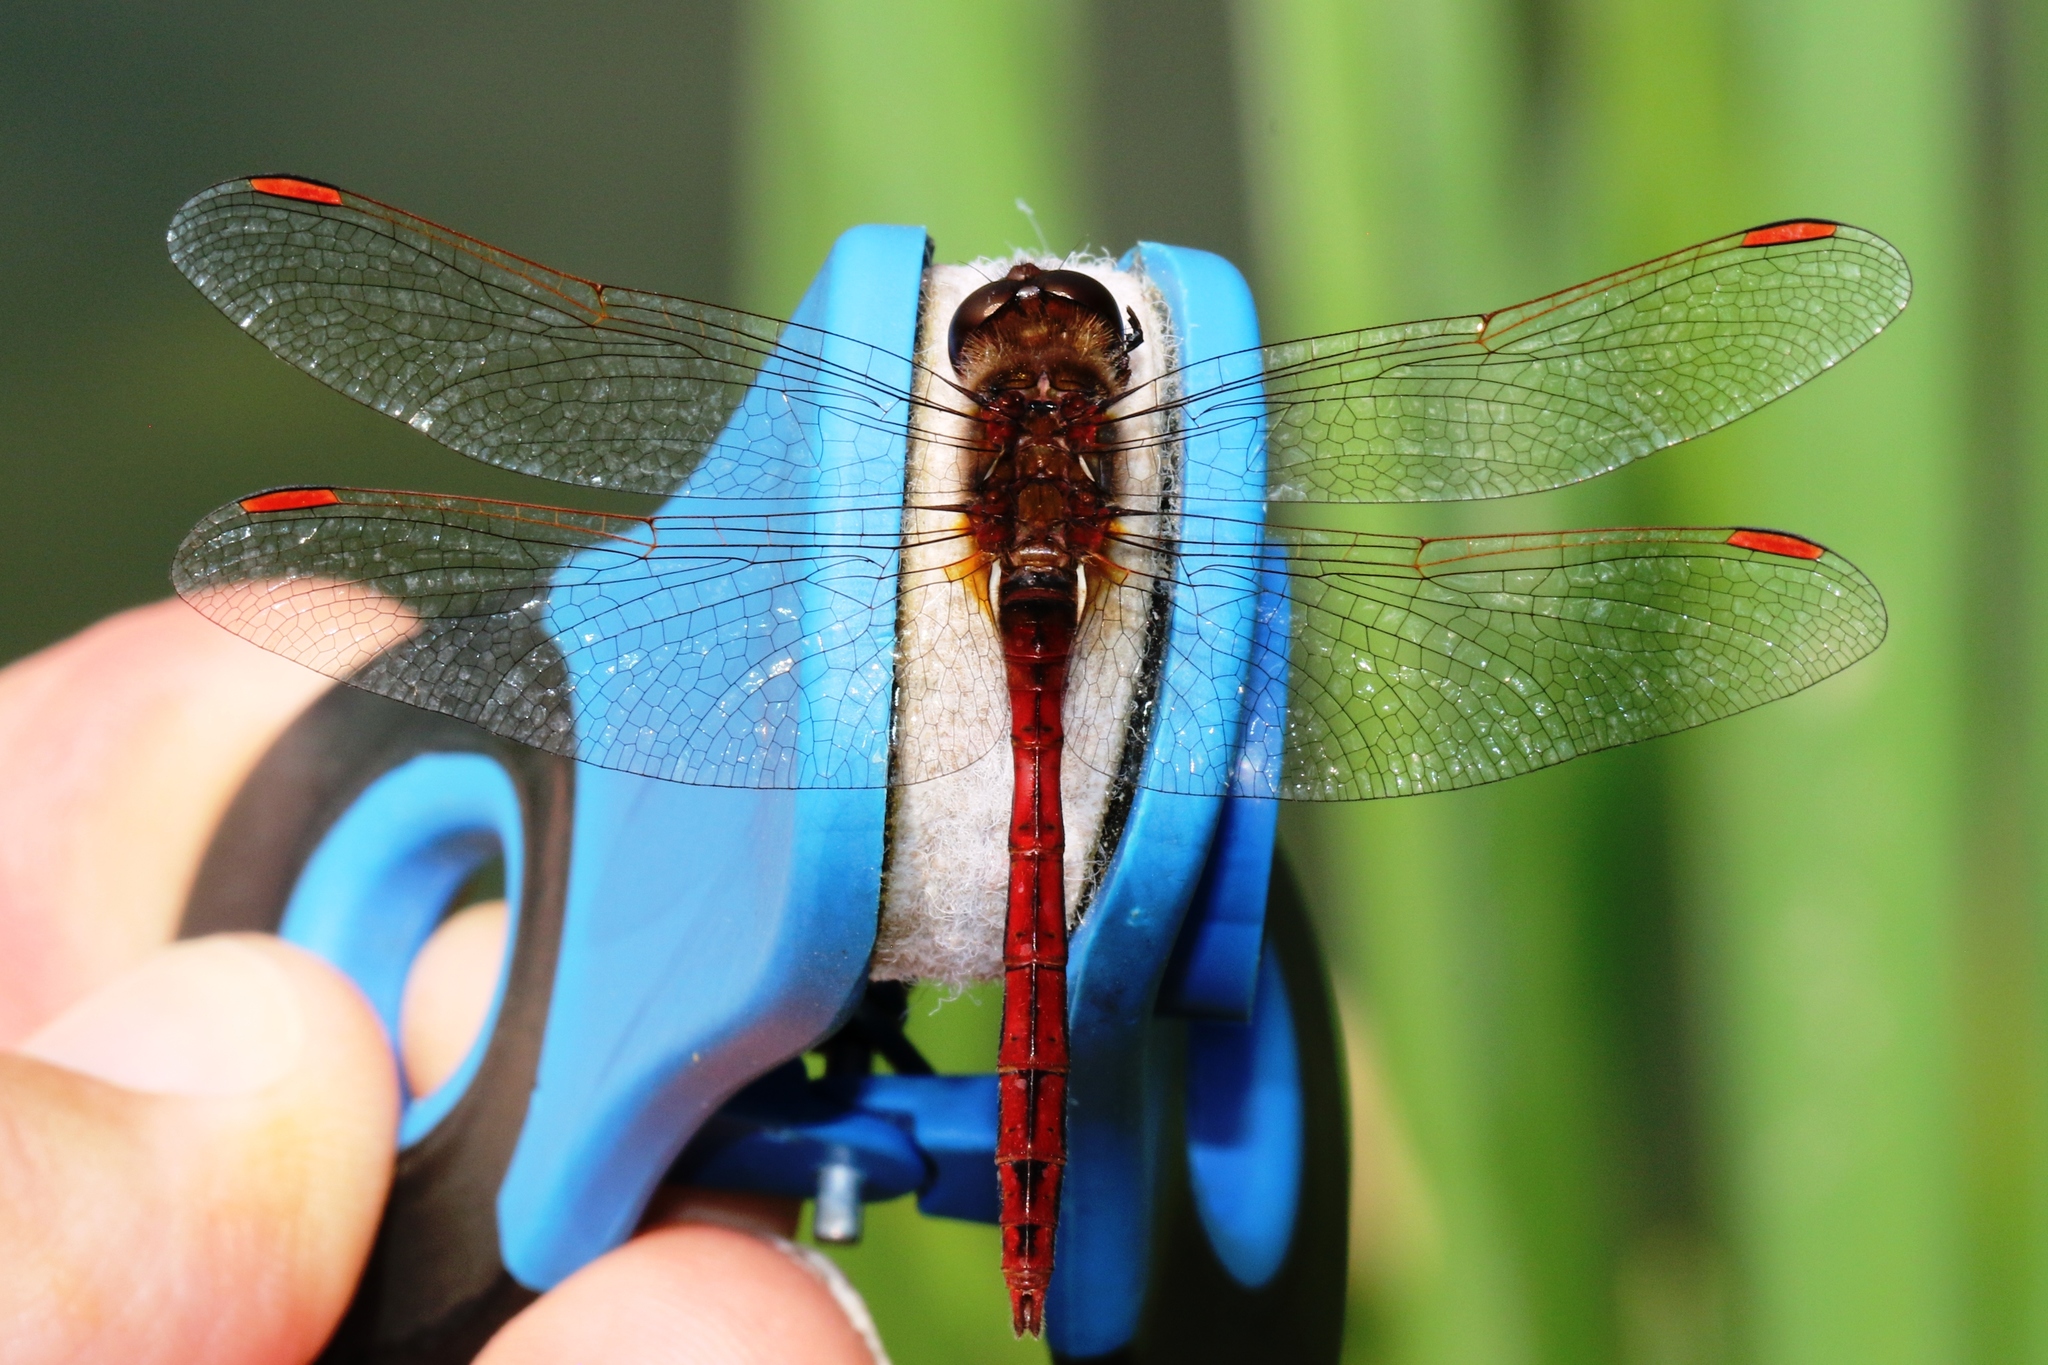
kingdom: Animalia
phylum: Arthropoda
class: Insecta
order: Odonata
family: Libellulidae
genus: Sympetrum
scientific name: Sympetrum costiferum
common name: Saffron-winged meadowhawk
